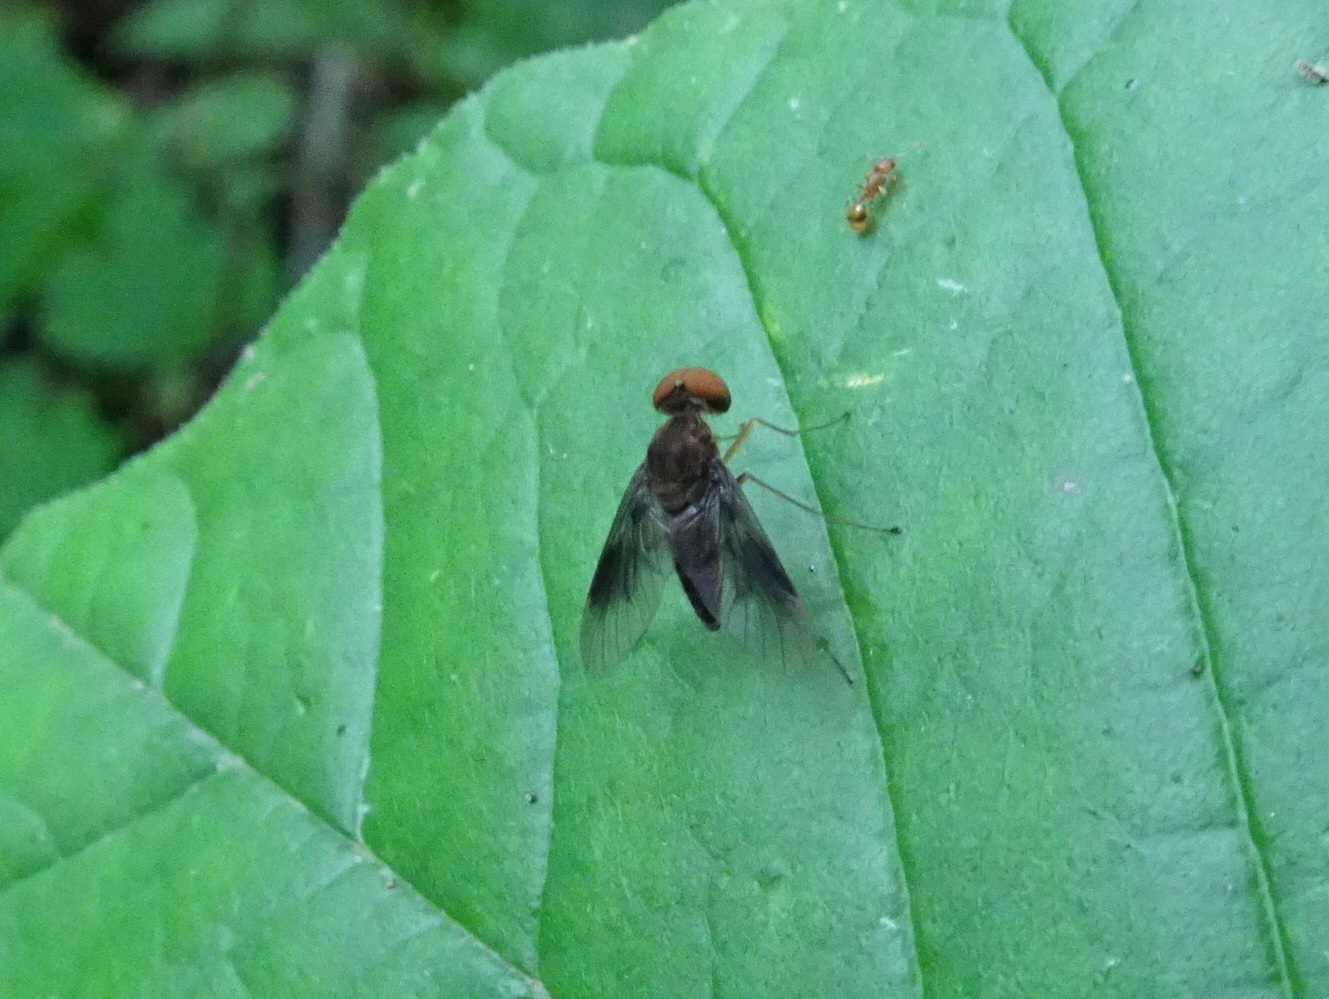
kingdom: Animalia
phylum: Arthropoda
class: Insecta
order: Diptera
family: Rhagionidae
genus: Chrysopilus
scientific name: Chrysopilus quadratus
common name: Quadrate snipe fly
